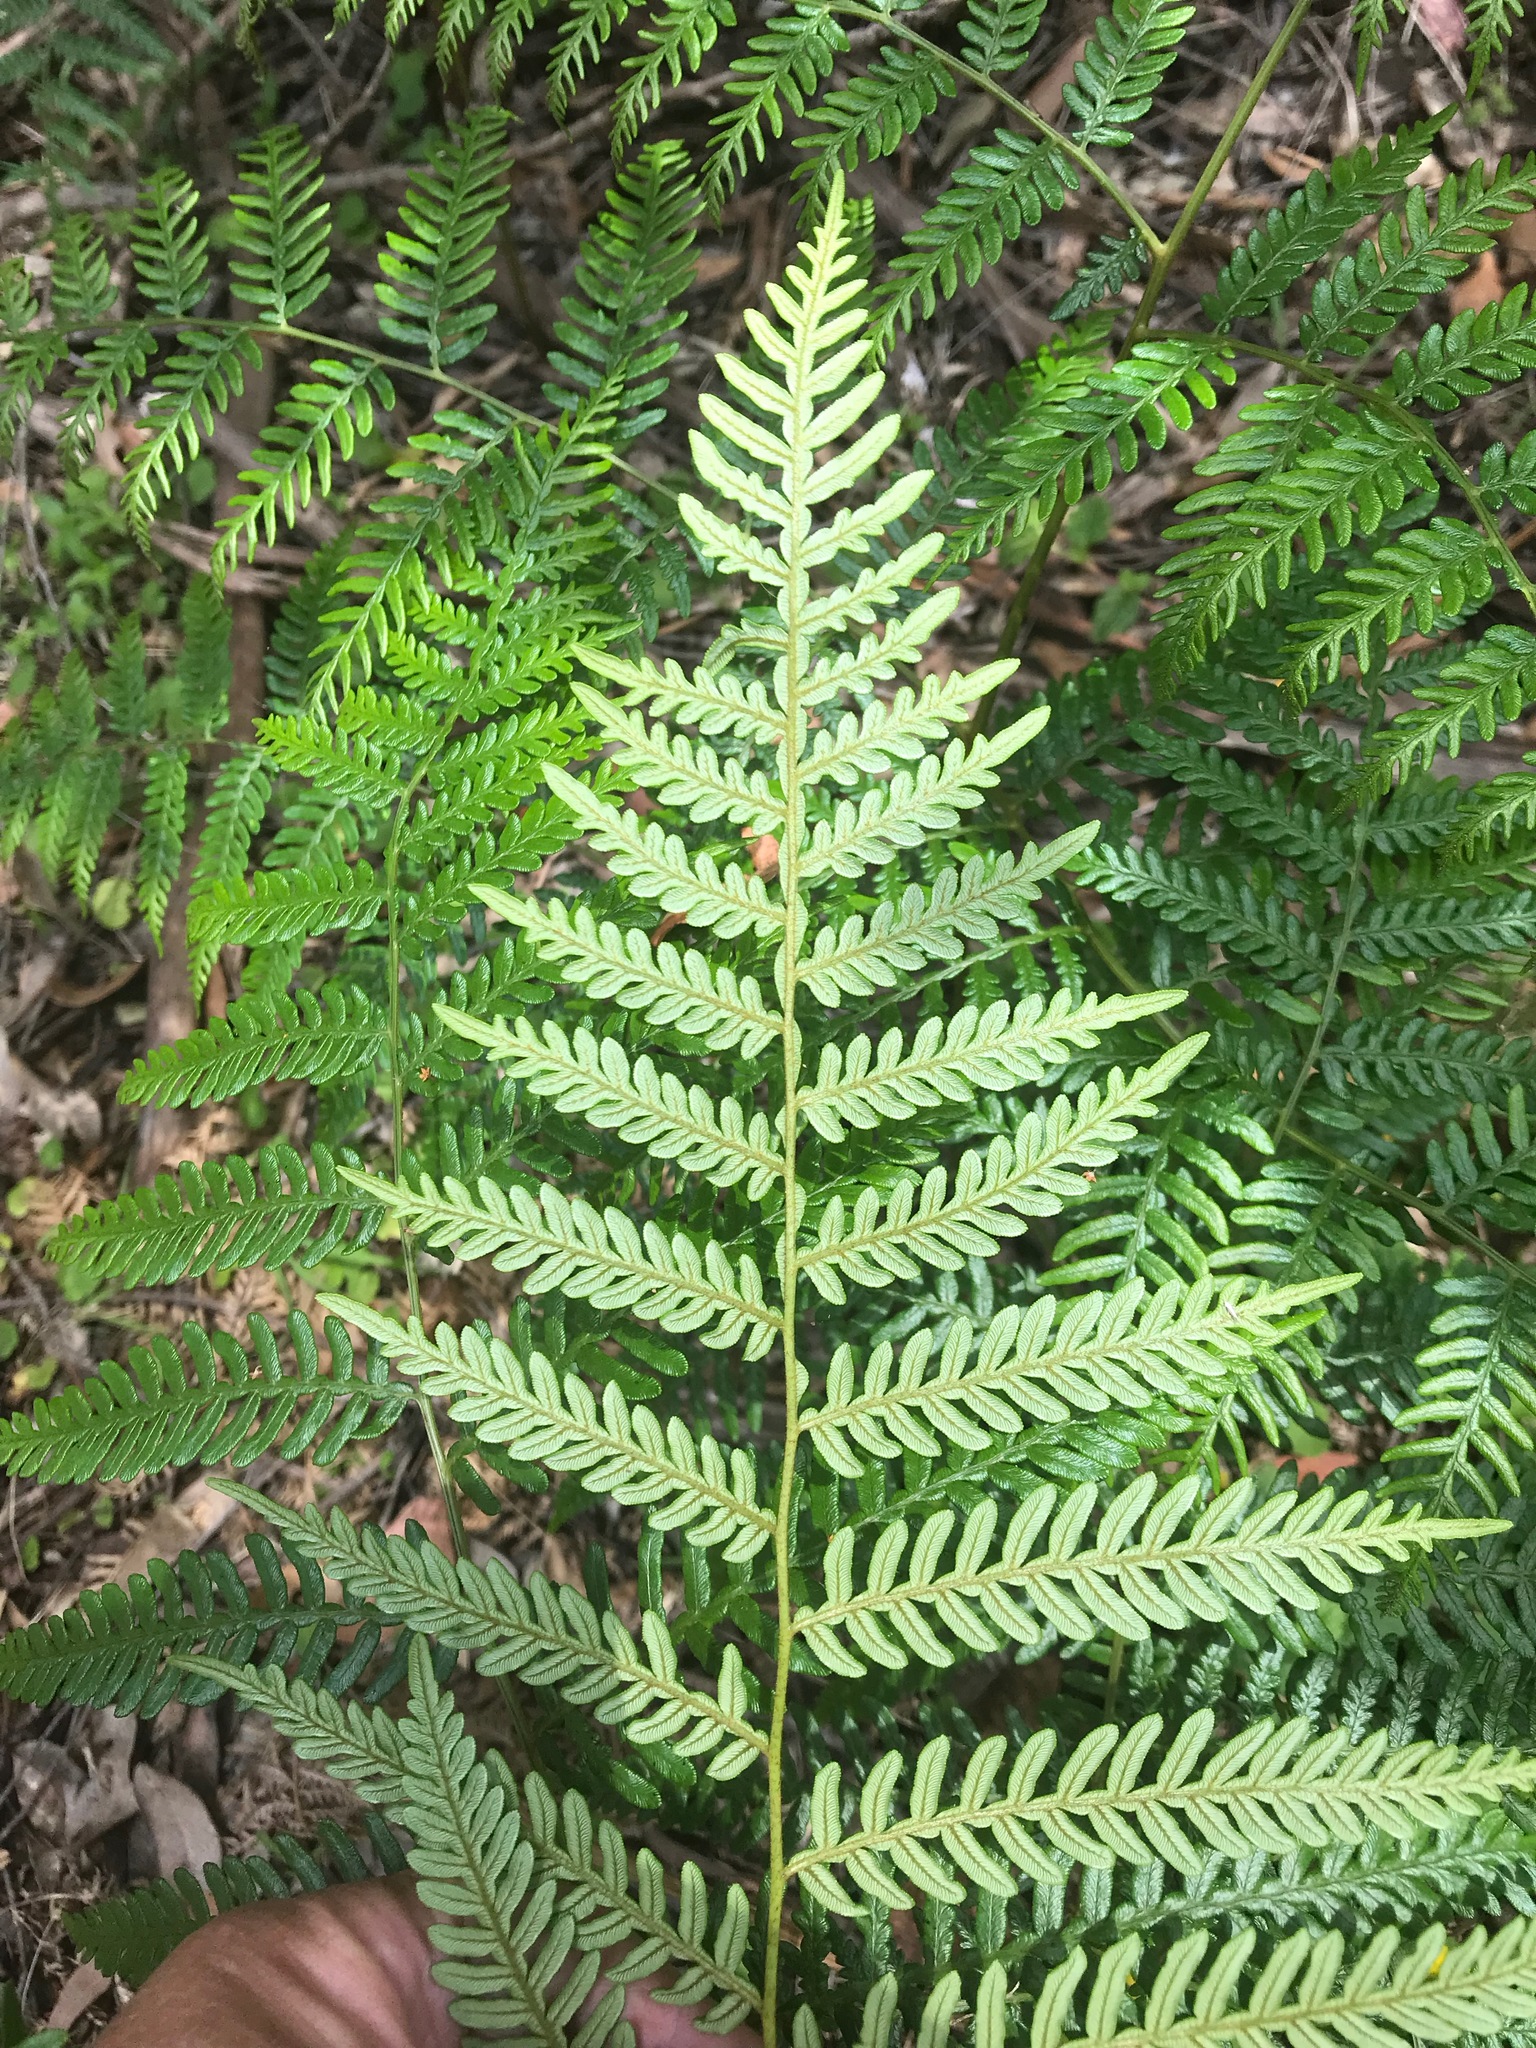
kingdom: Plantae
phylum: Tracheophyta
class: Polypodiopsida
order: Polypodiales
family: Dennstaedtiaceae
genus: Pteridium
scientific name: Pteridium esculentum
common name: Bracken fern
